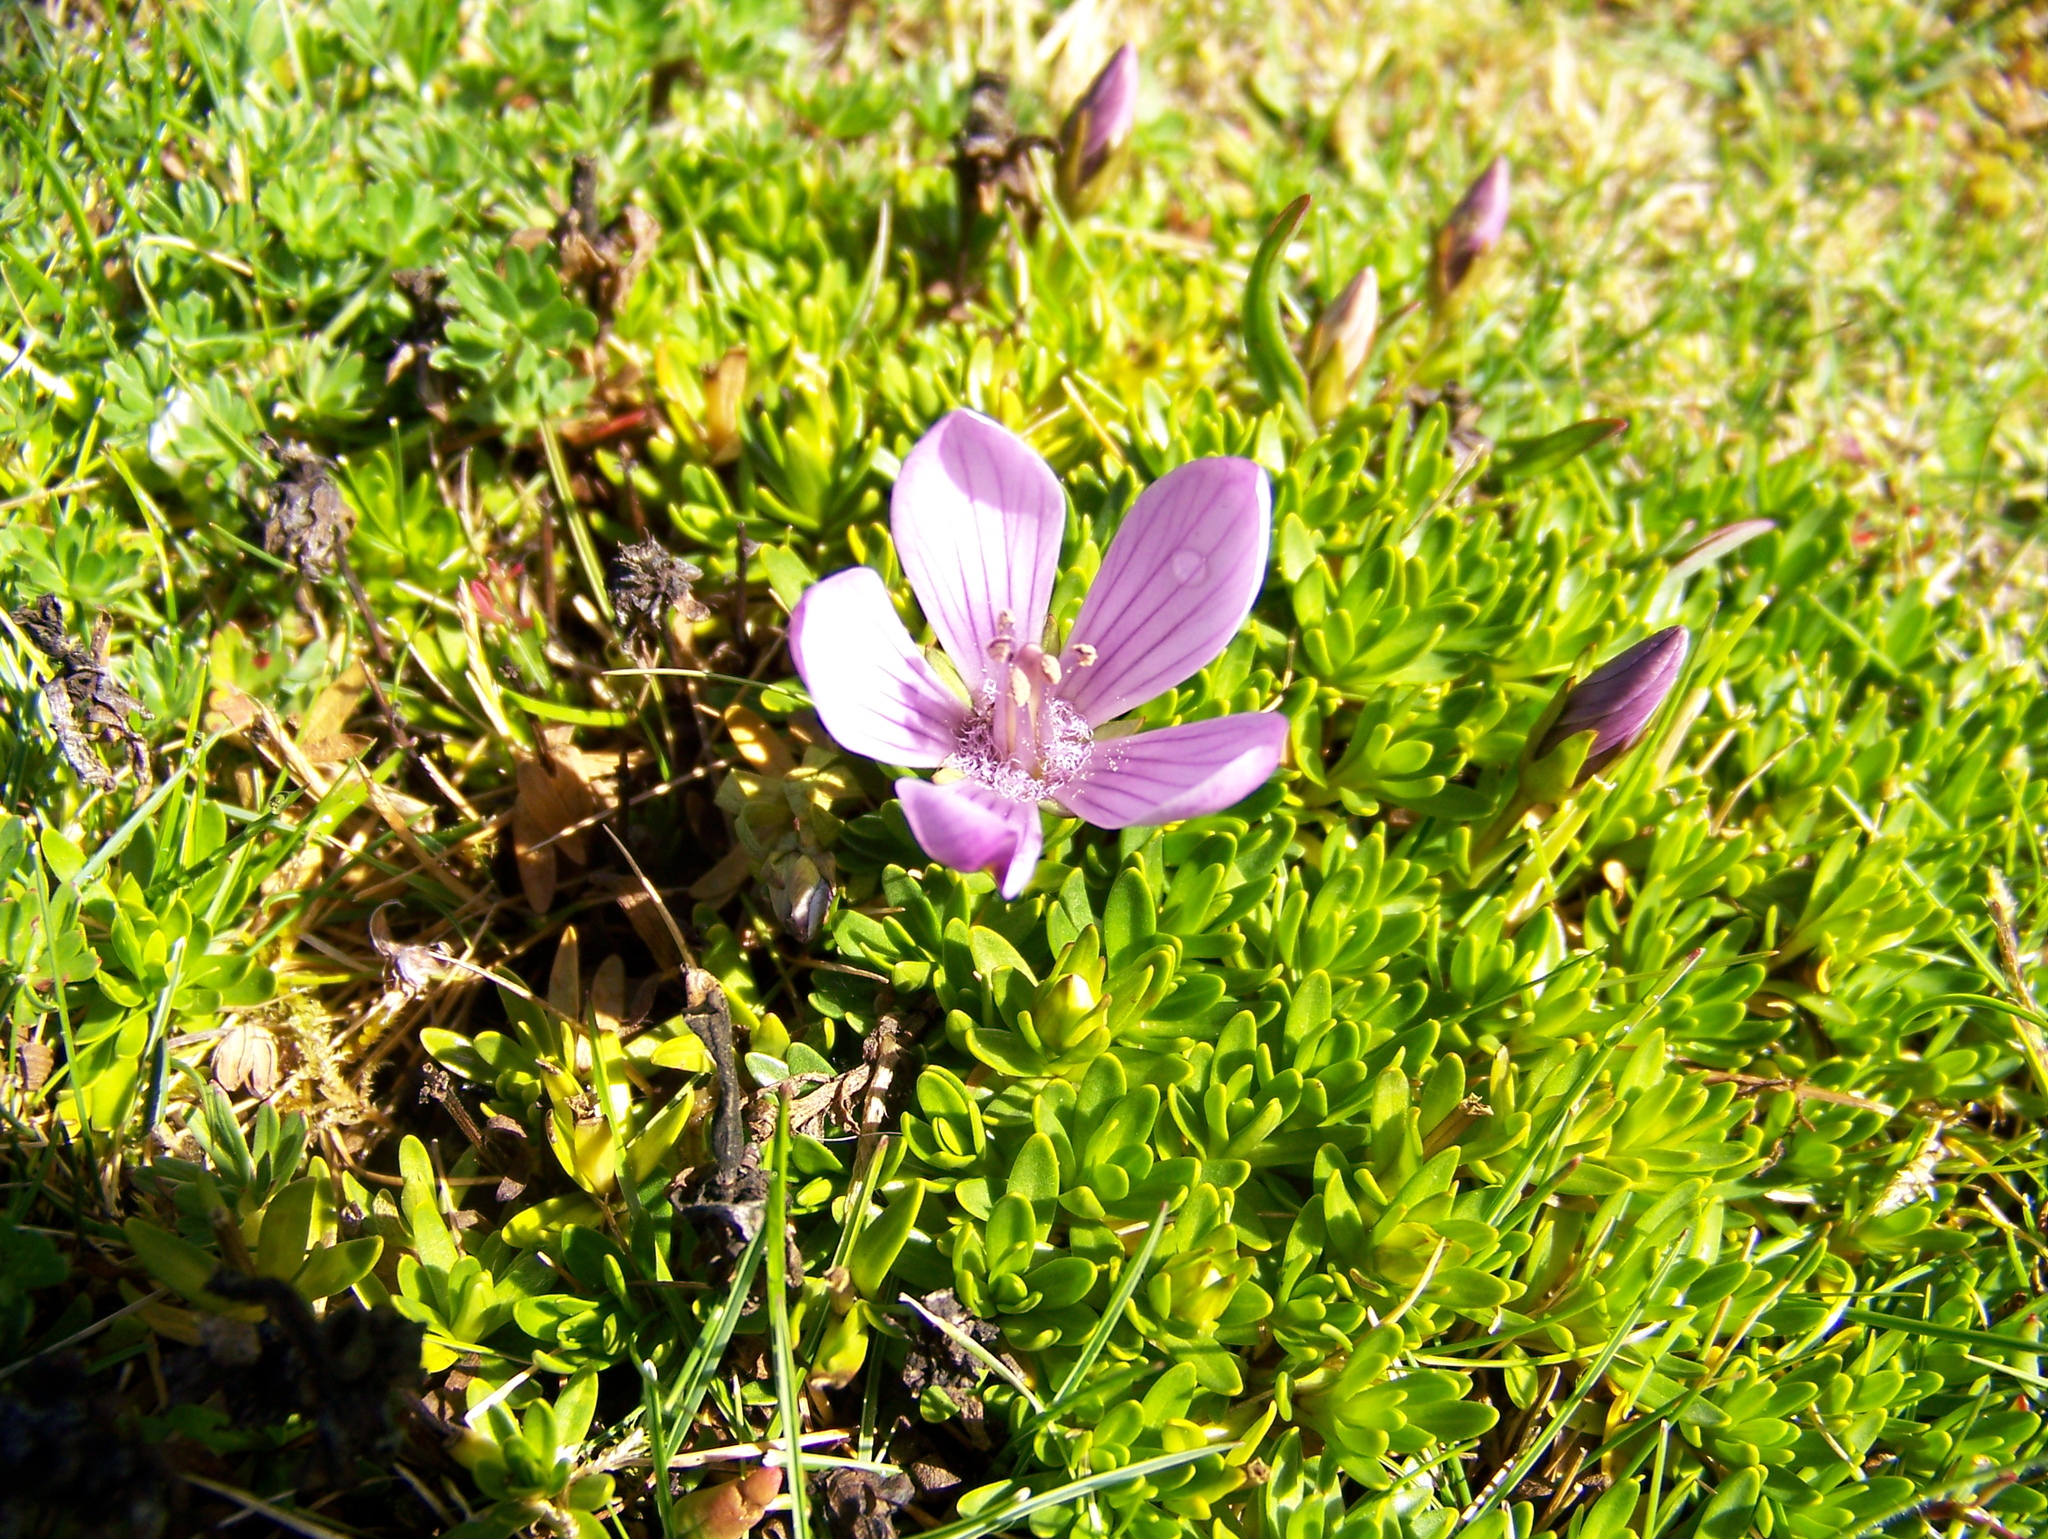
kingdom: Plantae
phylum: Tracheophyta
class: Magnoliopsida
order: Gentianales
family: Gentianaceae
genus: Gentianella
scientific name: Gentianella cerastioides
